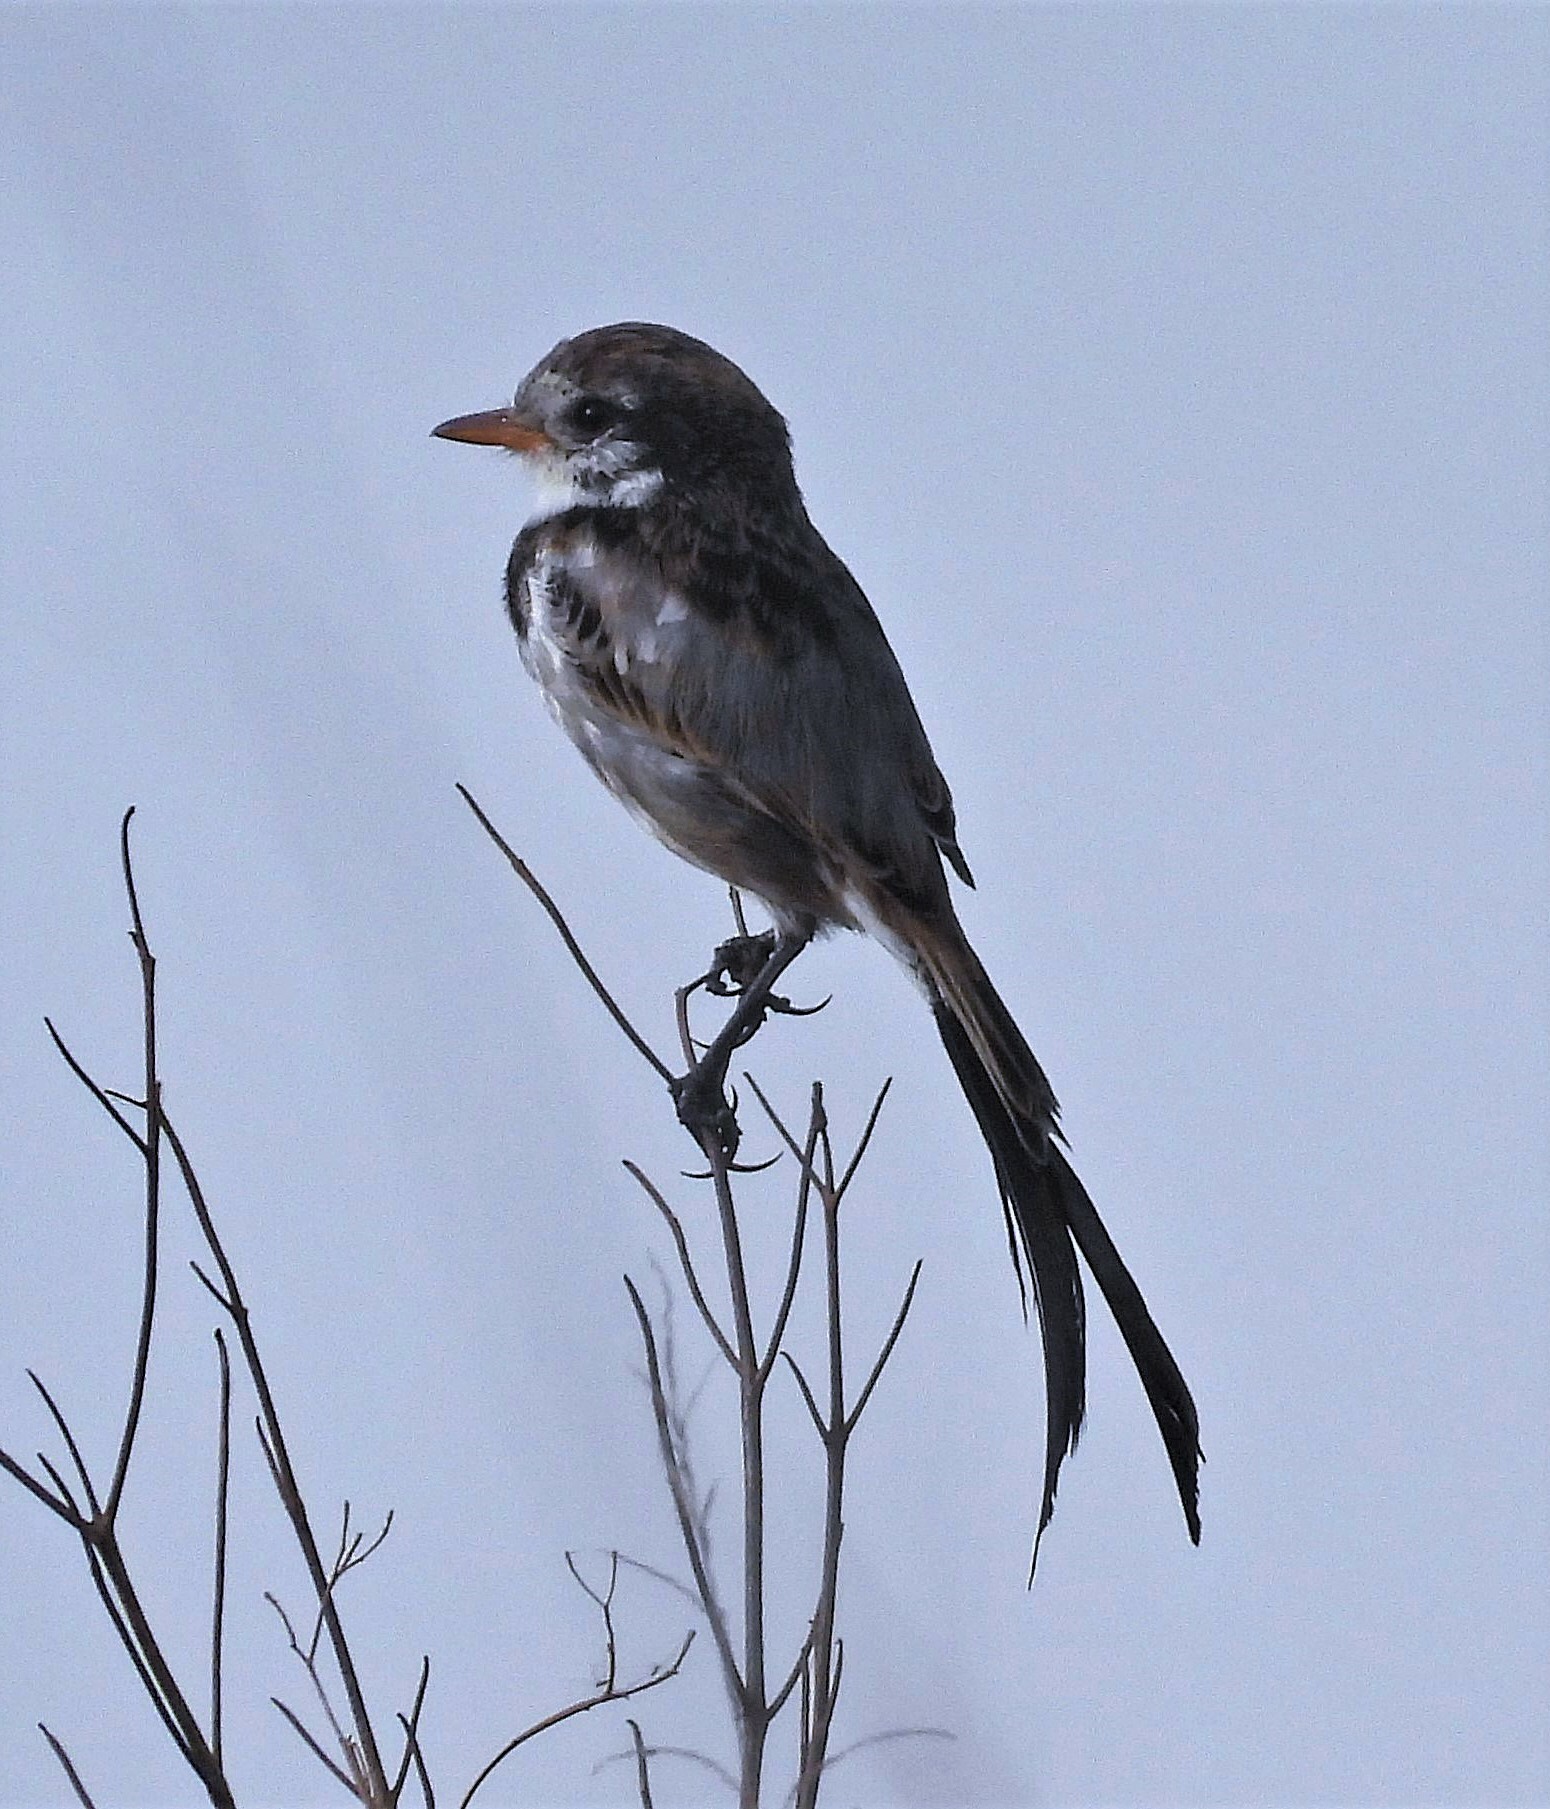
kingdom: Animalia
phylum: Chordata
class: Aves
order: Passeriformes
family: Tyrannidae
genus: Alectrurus
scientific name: Alectrurus risora
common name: Strange-tailed tyrant
